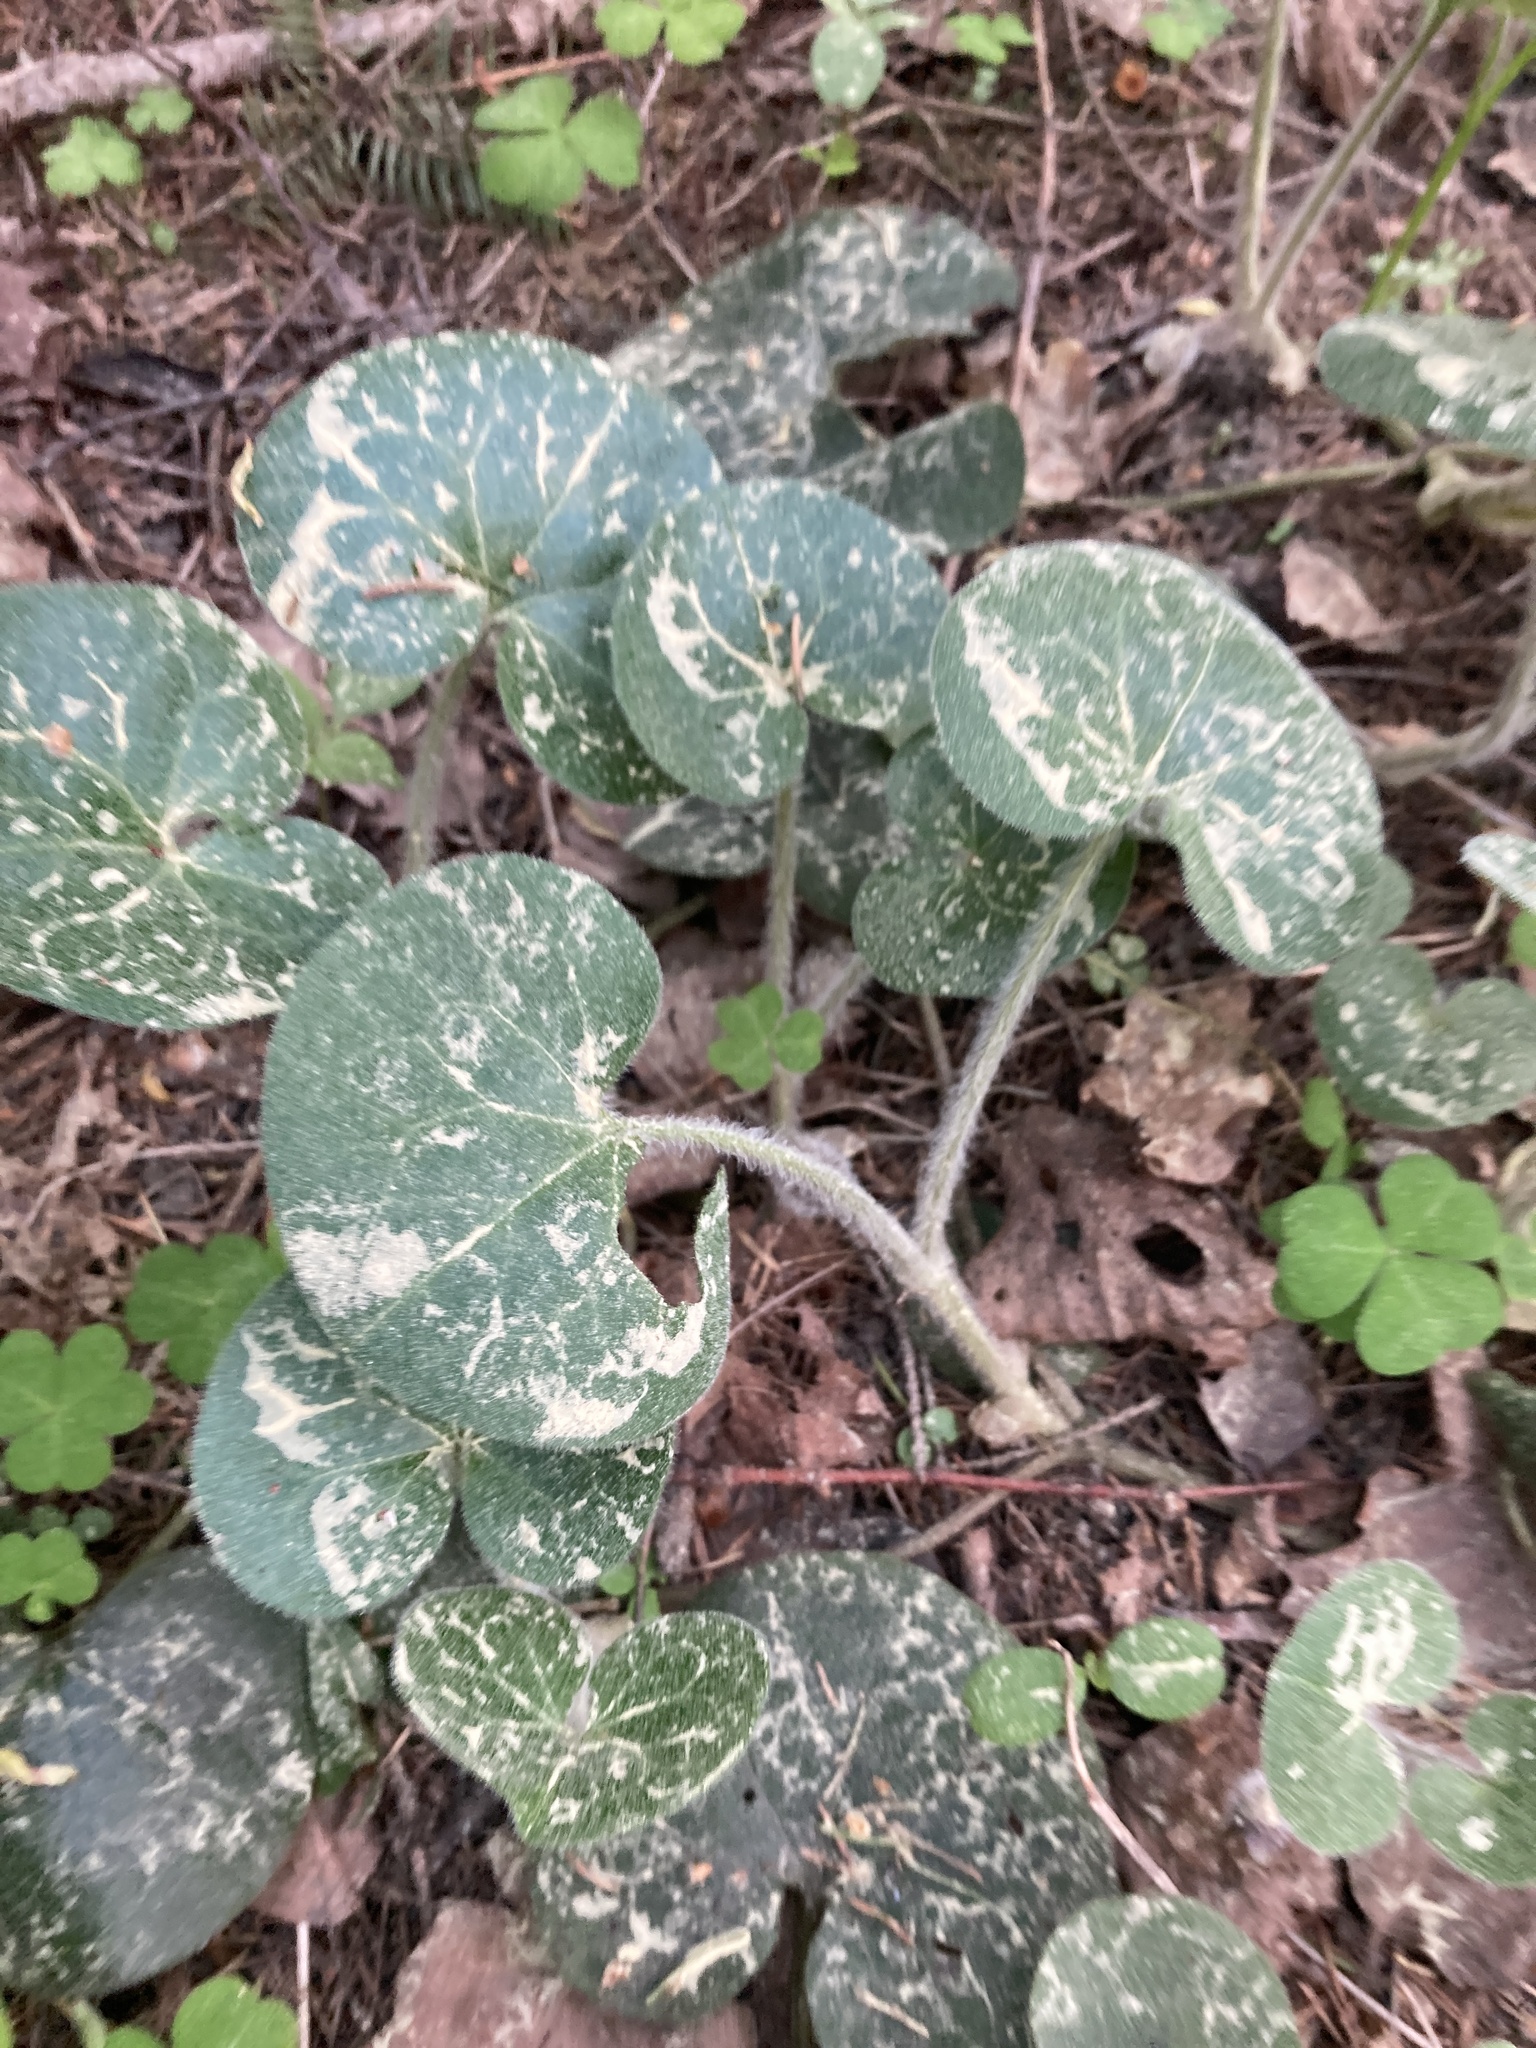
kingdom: Plantae
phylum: Tracheophyta
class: Magnoliopsida
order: Piperales
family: Aristolochiaceae
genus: Asarum
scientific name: Asarum europaeum
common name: Asarabacca
